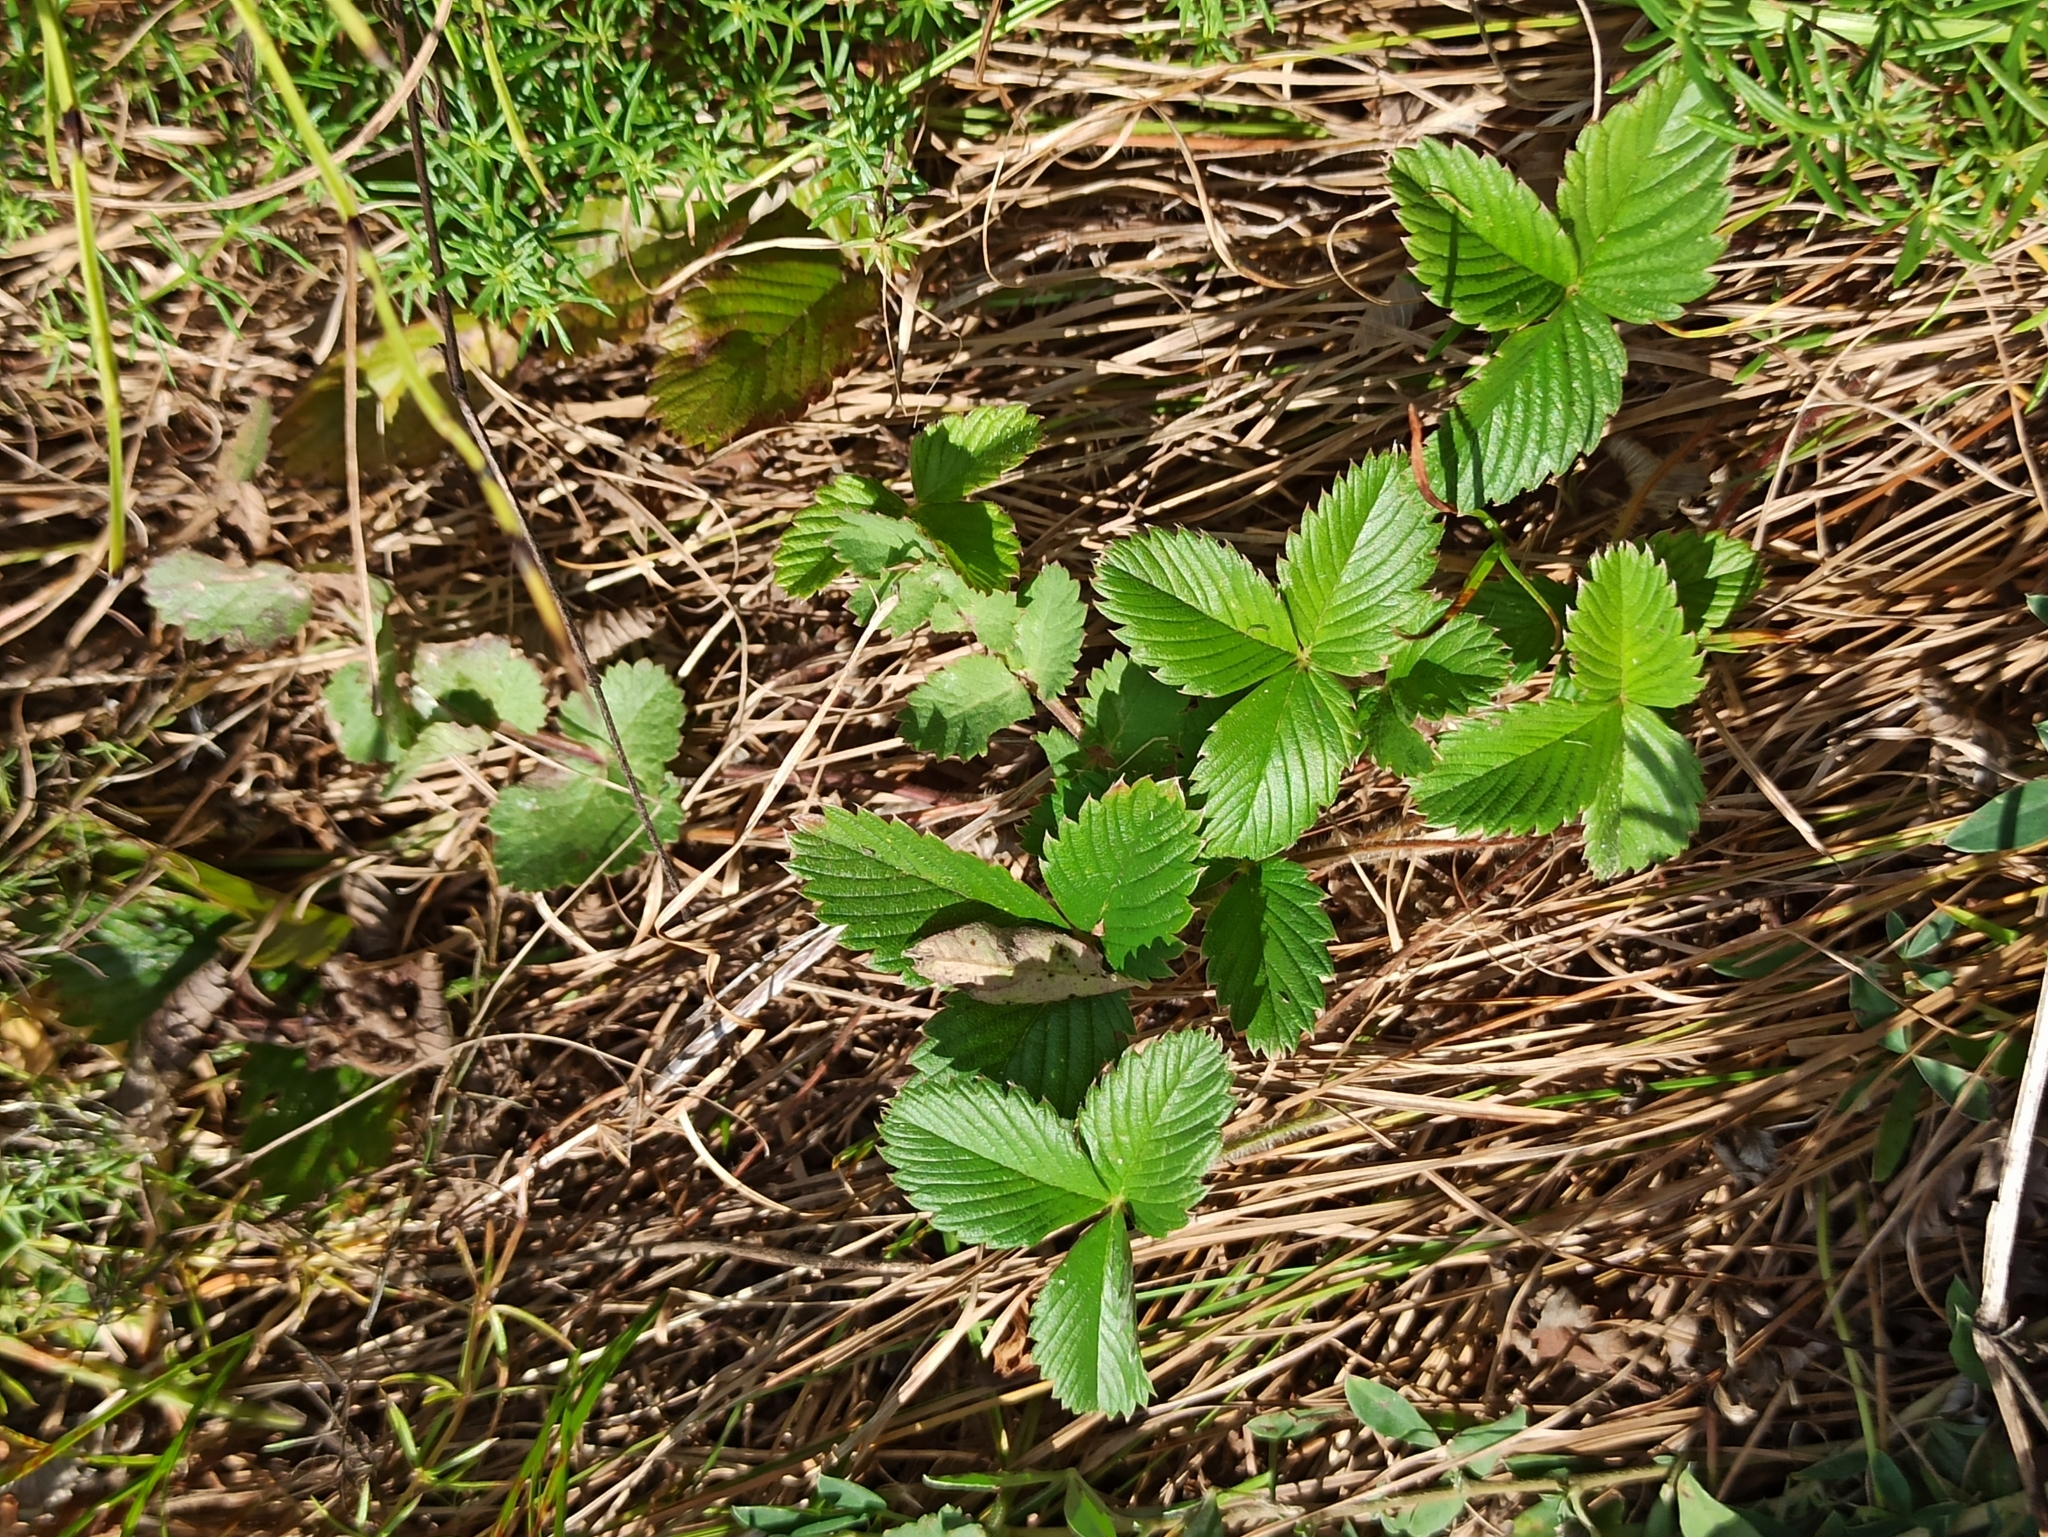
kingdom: Plantae
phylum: Tracheophyta
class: Magnoliopsida
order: Rosales
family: Rosaceae
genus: Fragaria
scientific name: Fragaria viridis
